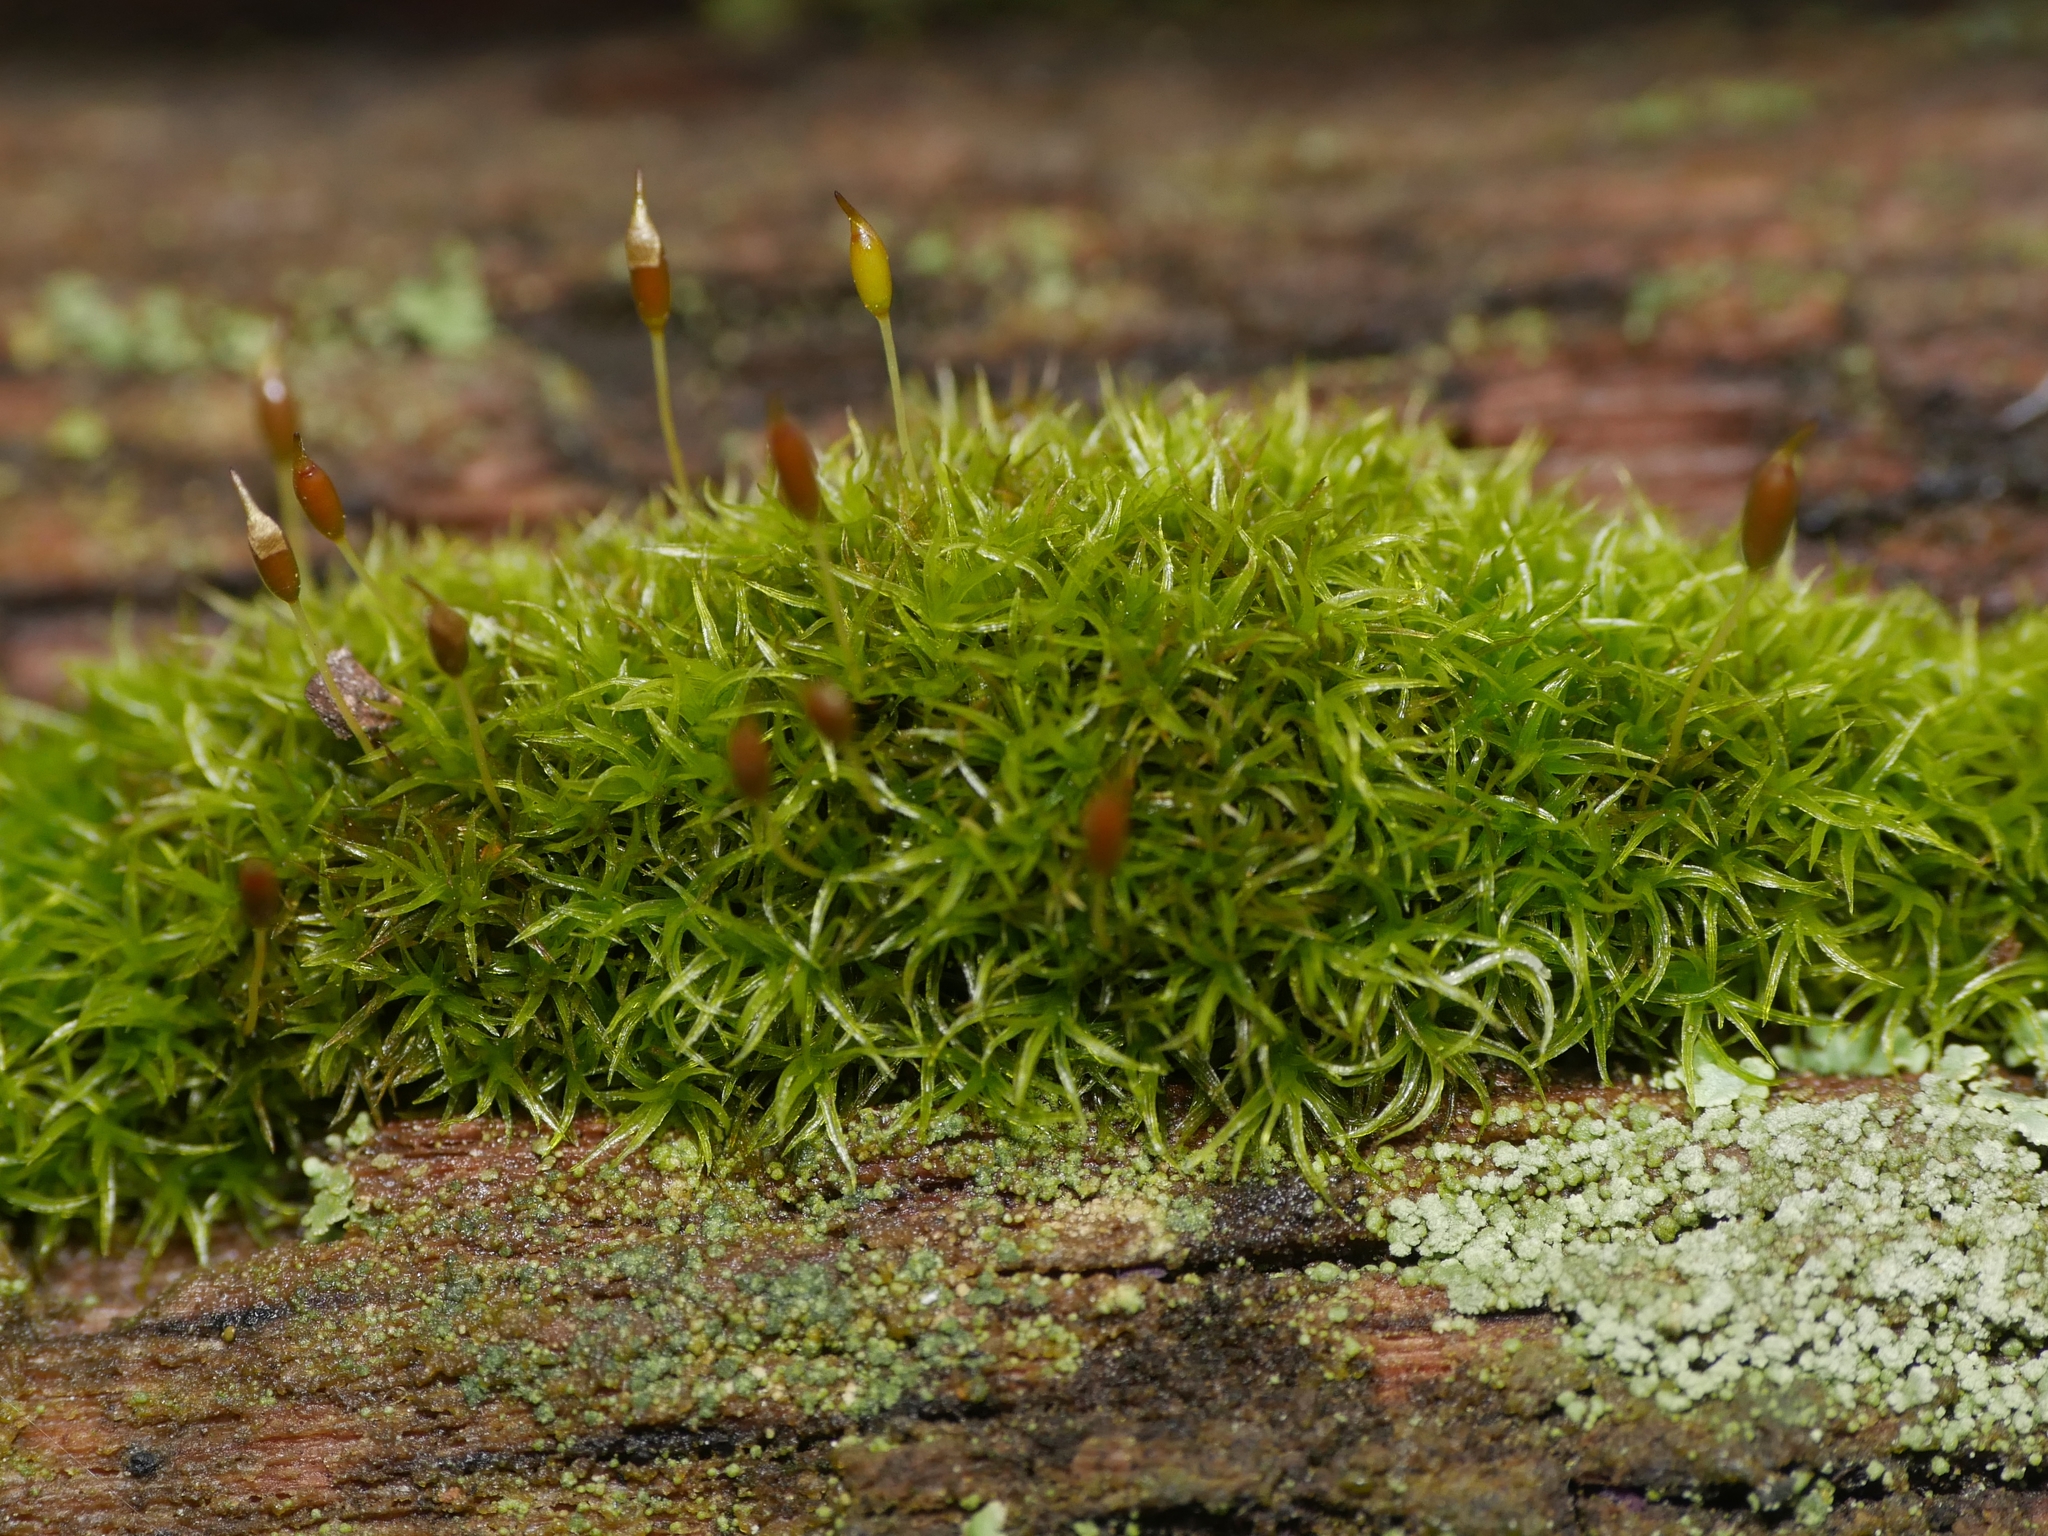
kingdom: Plantae
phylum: Bryophyta
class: Bryopsida
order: Dicranales
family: Rhabdoweisiaceae
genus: Dicranoweisia
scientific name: Dicranoweisia cirrata
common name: Common pincushion
